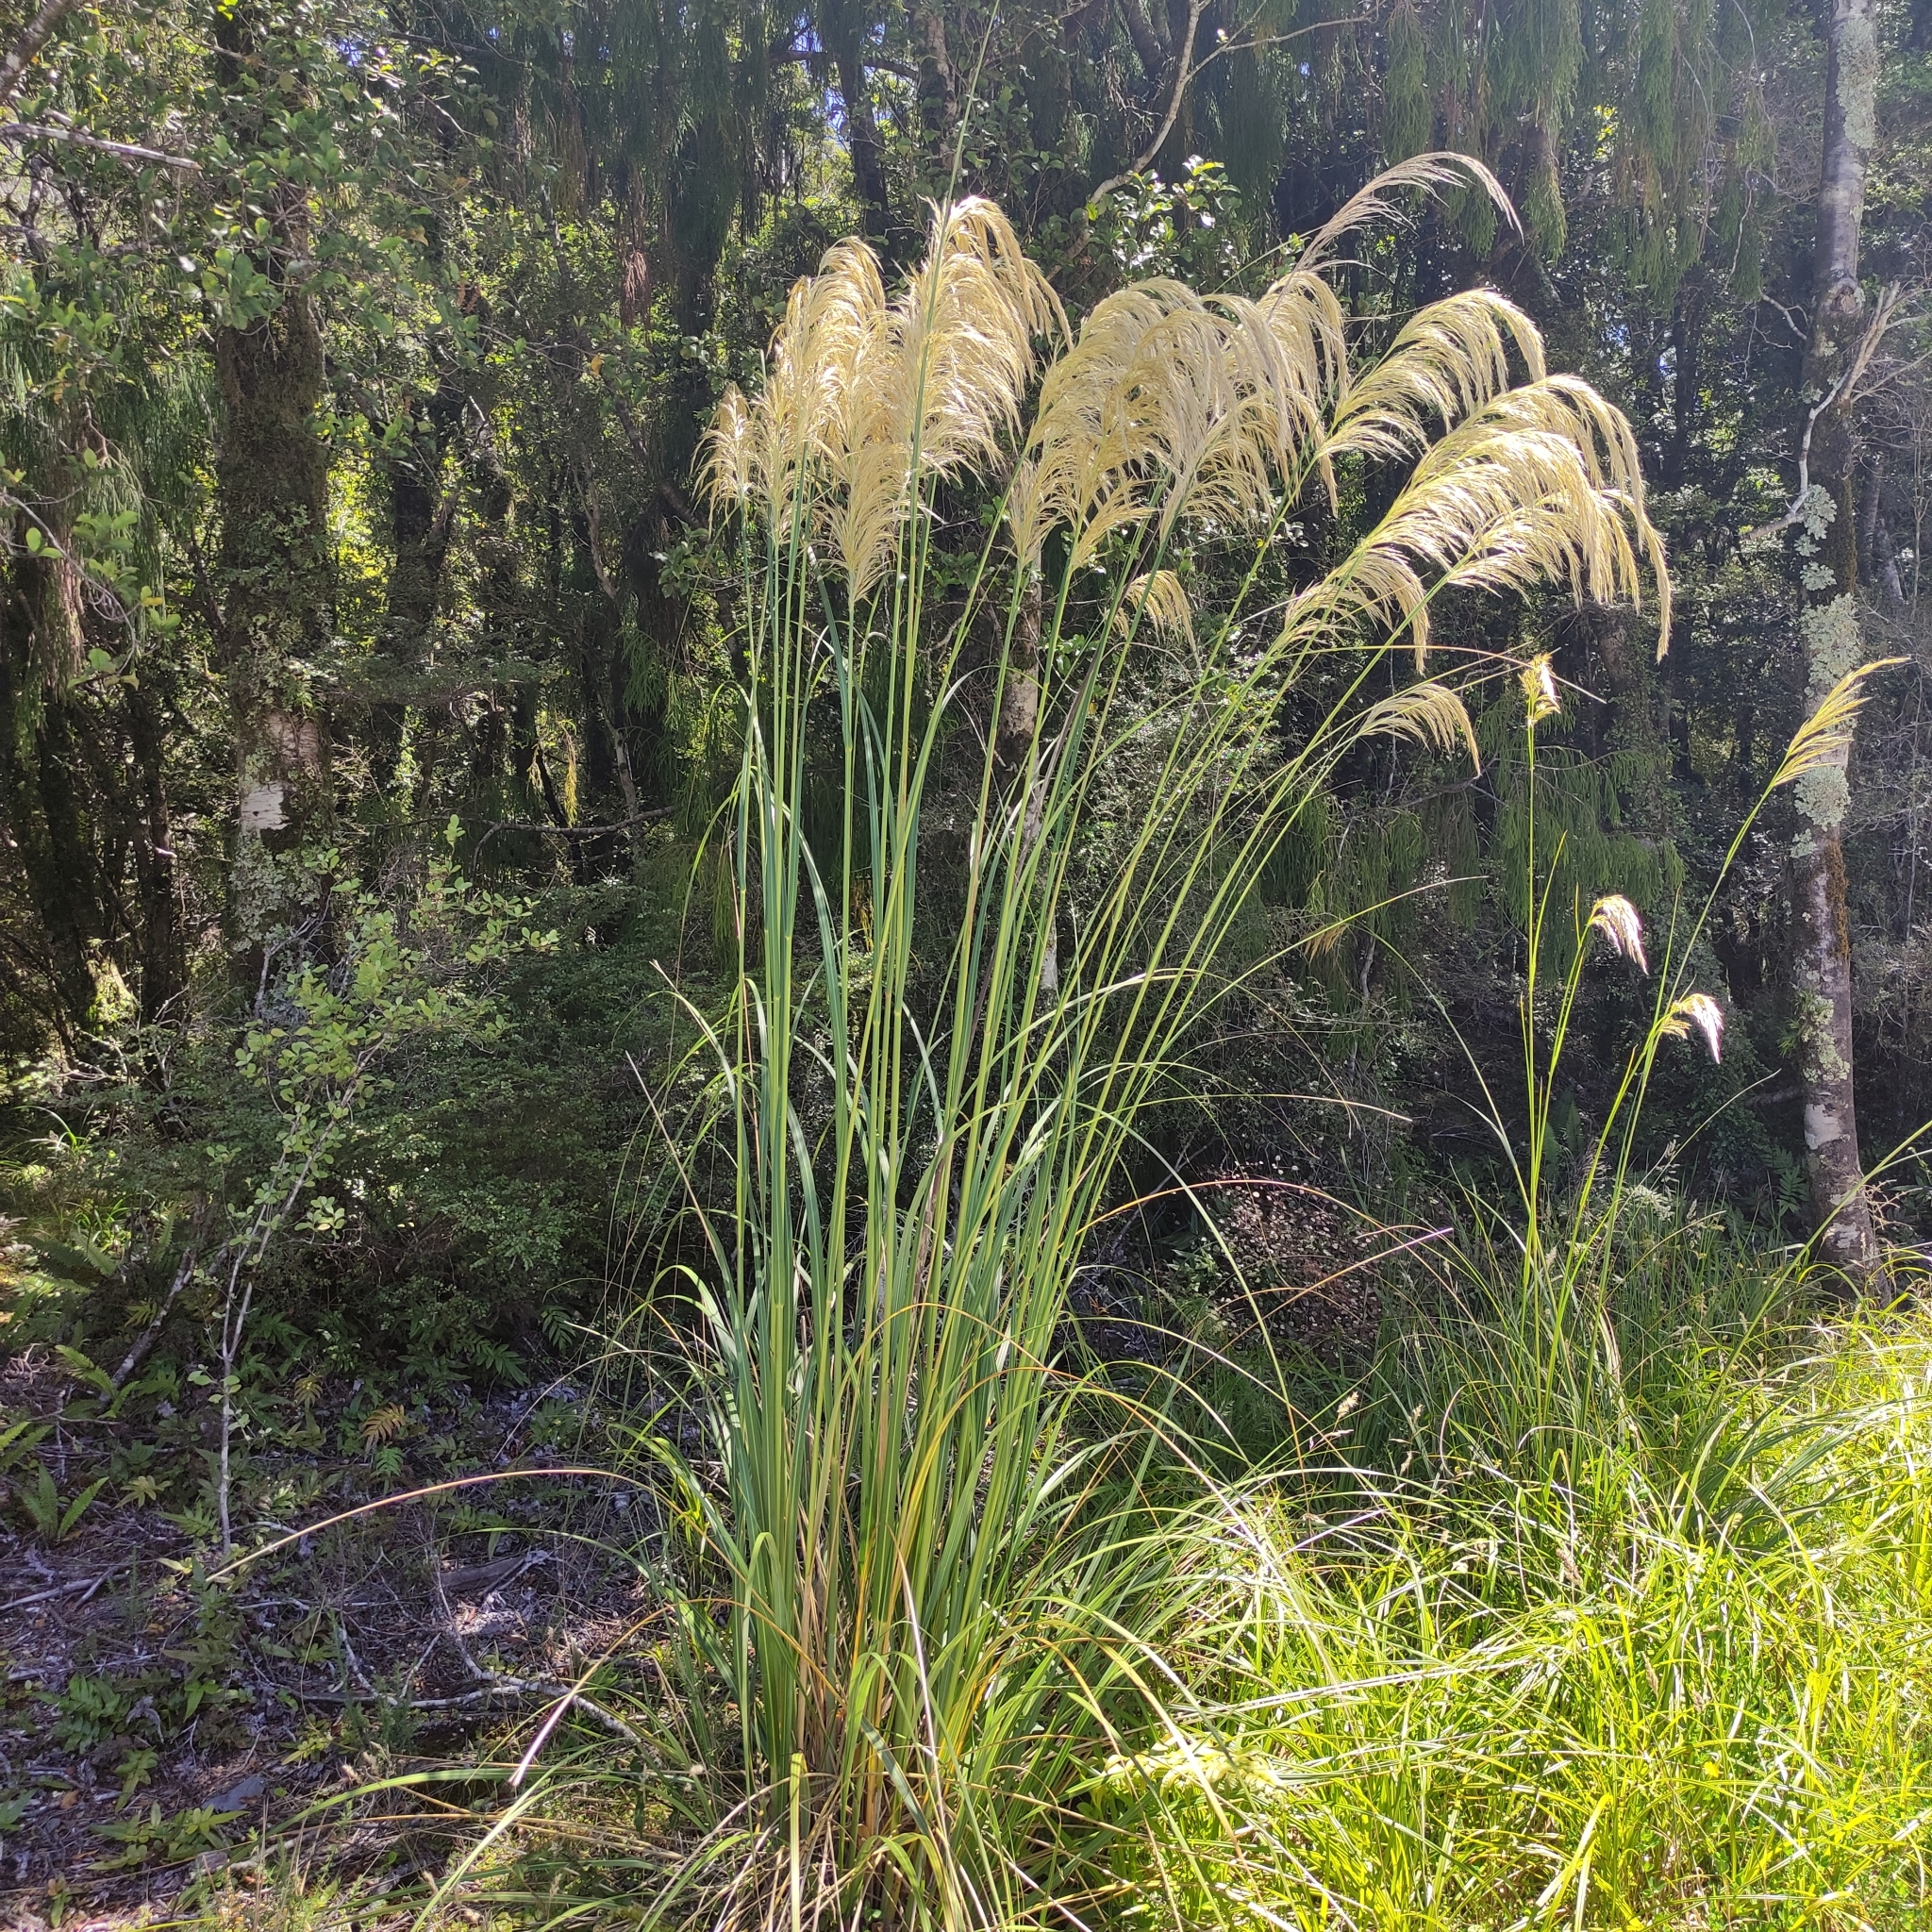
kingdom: Plantae
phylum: Tracheophyta
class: Liliopsida
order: Poales
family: Poaceae
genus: Austroderia
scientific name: Austroderia richardii
